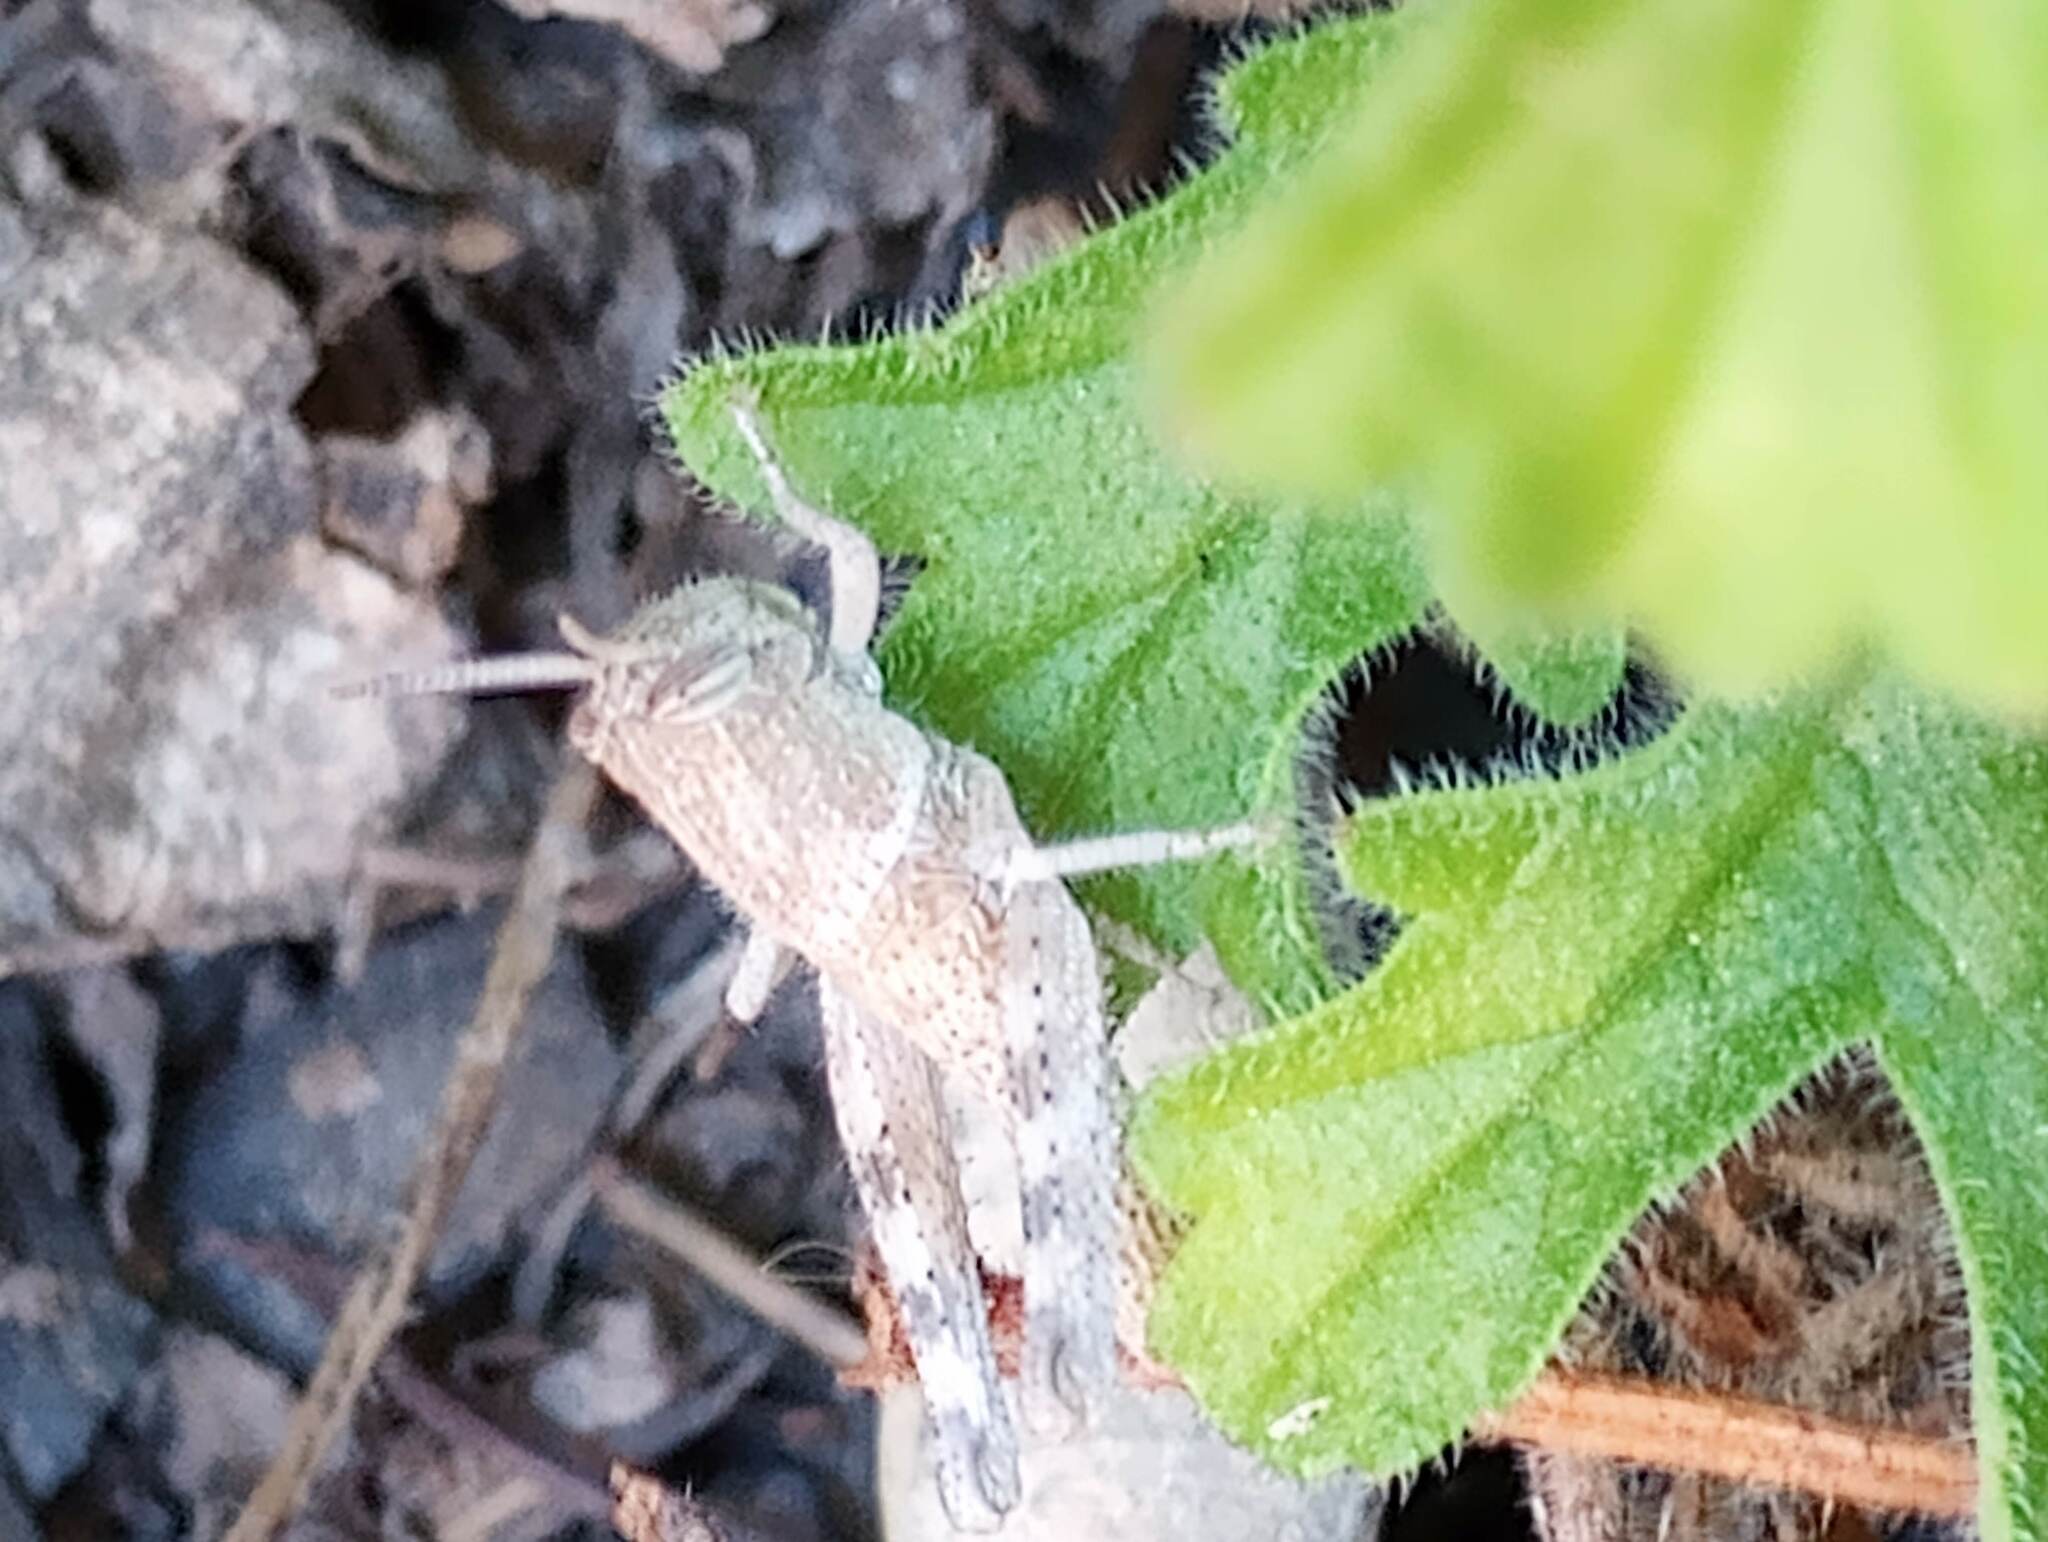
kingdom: Animalia
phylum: Arthropoda
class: Insecta
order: Orthoptera
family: Acrididae
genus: Schistocerca
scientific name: Schistocerca nitens
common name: Vagrant grasshopper
